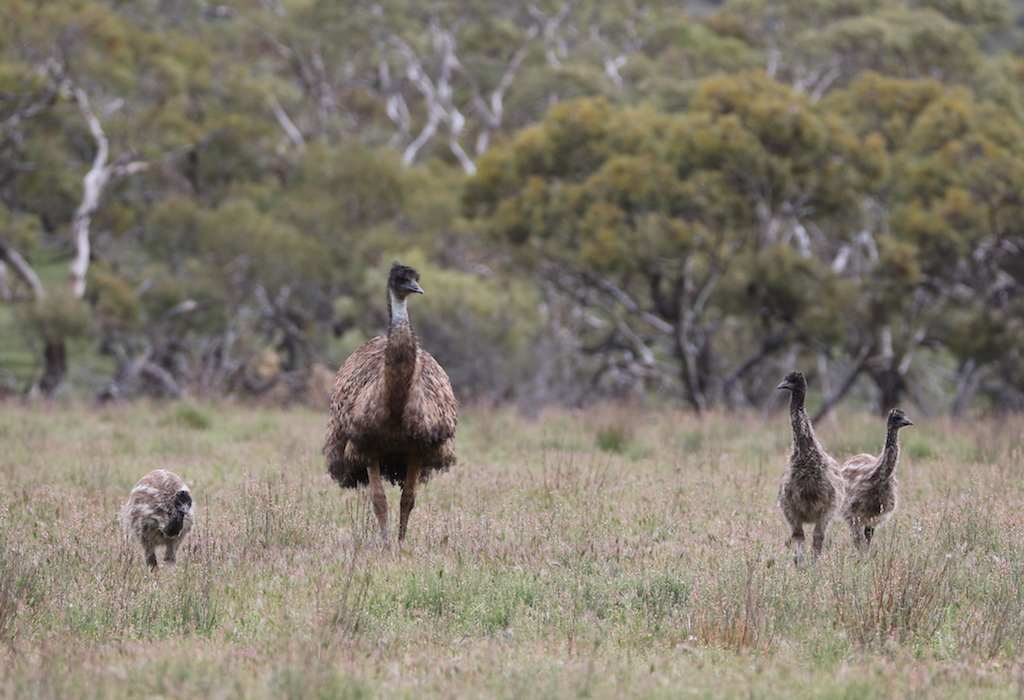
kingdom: Animalia
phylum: Chordata
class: Aves
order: Casuariiformes
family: Dromaiidae
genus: Dromaius
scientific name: Dromaius novaehollandiae
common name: Emu
